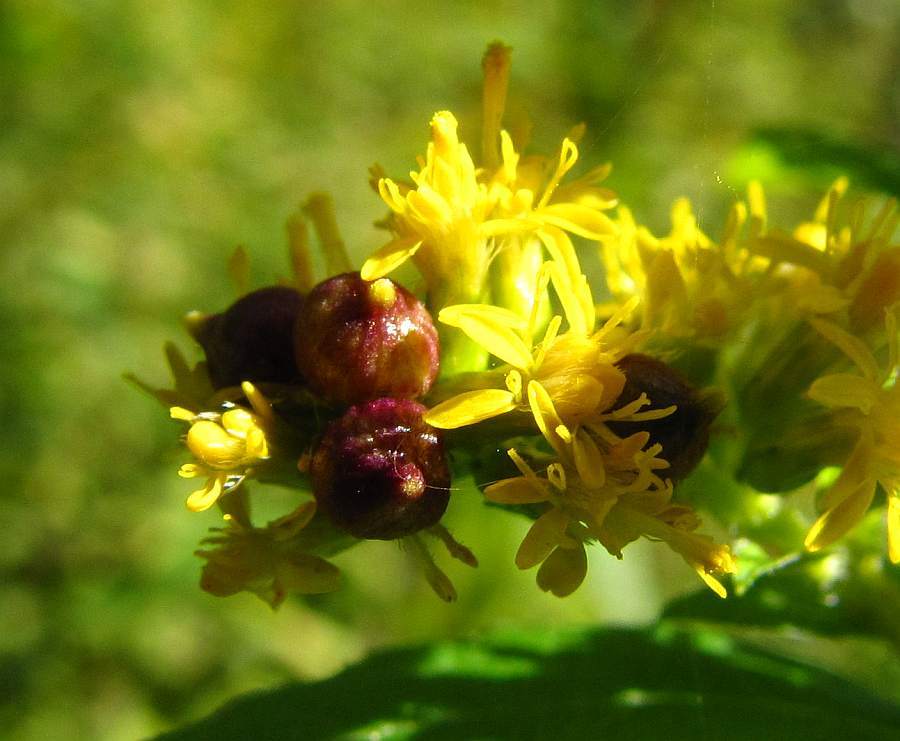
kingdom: Animalia
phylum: Arthropoda
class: Insecta
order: Diptera
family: Cecidomyiidae
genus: Schizomyia
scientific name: Schizomyia racemicola
